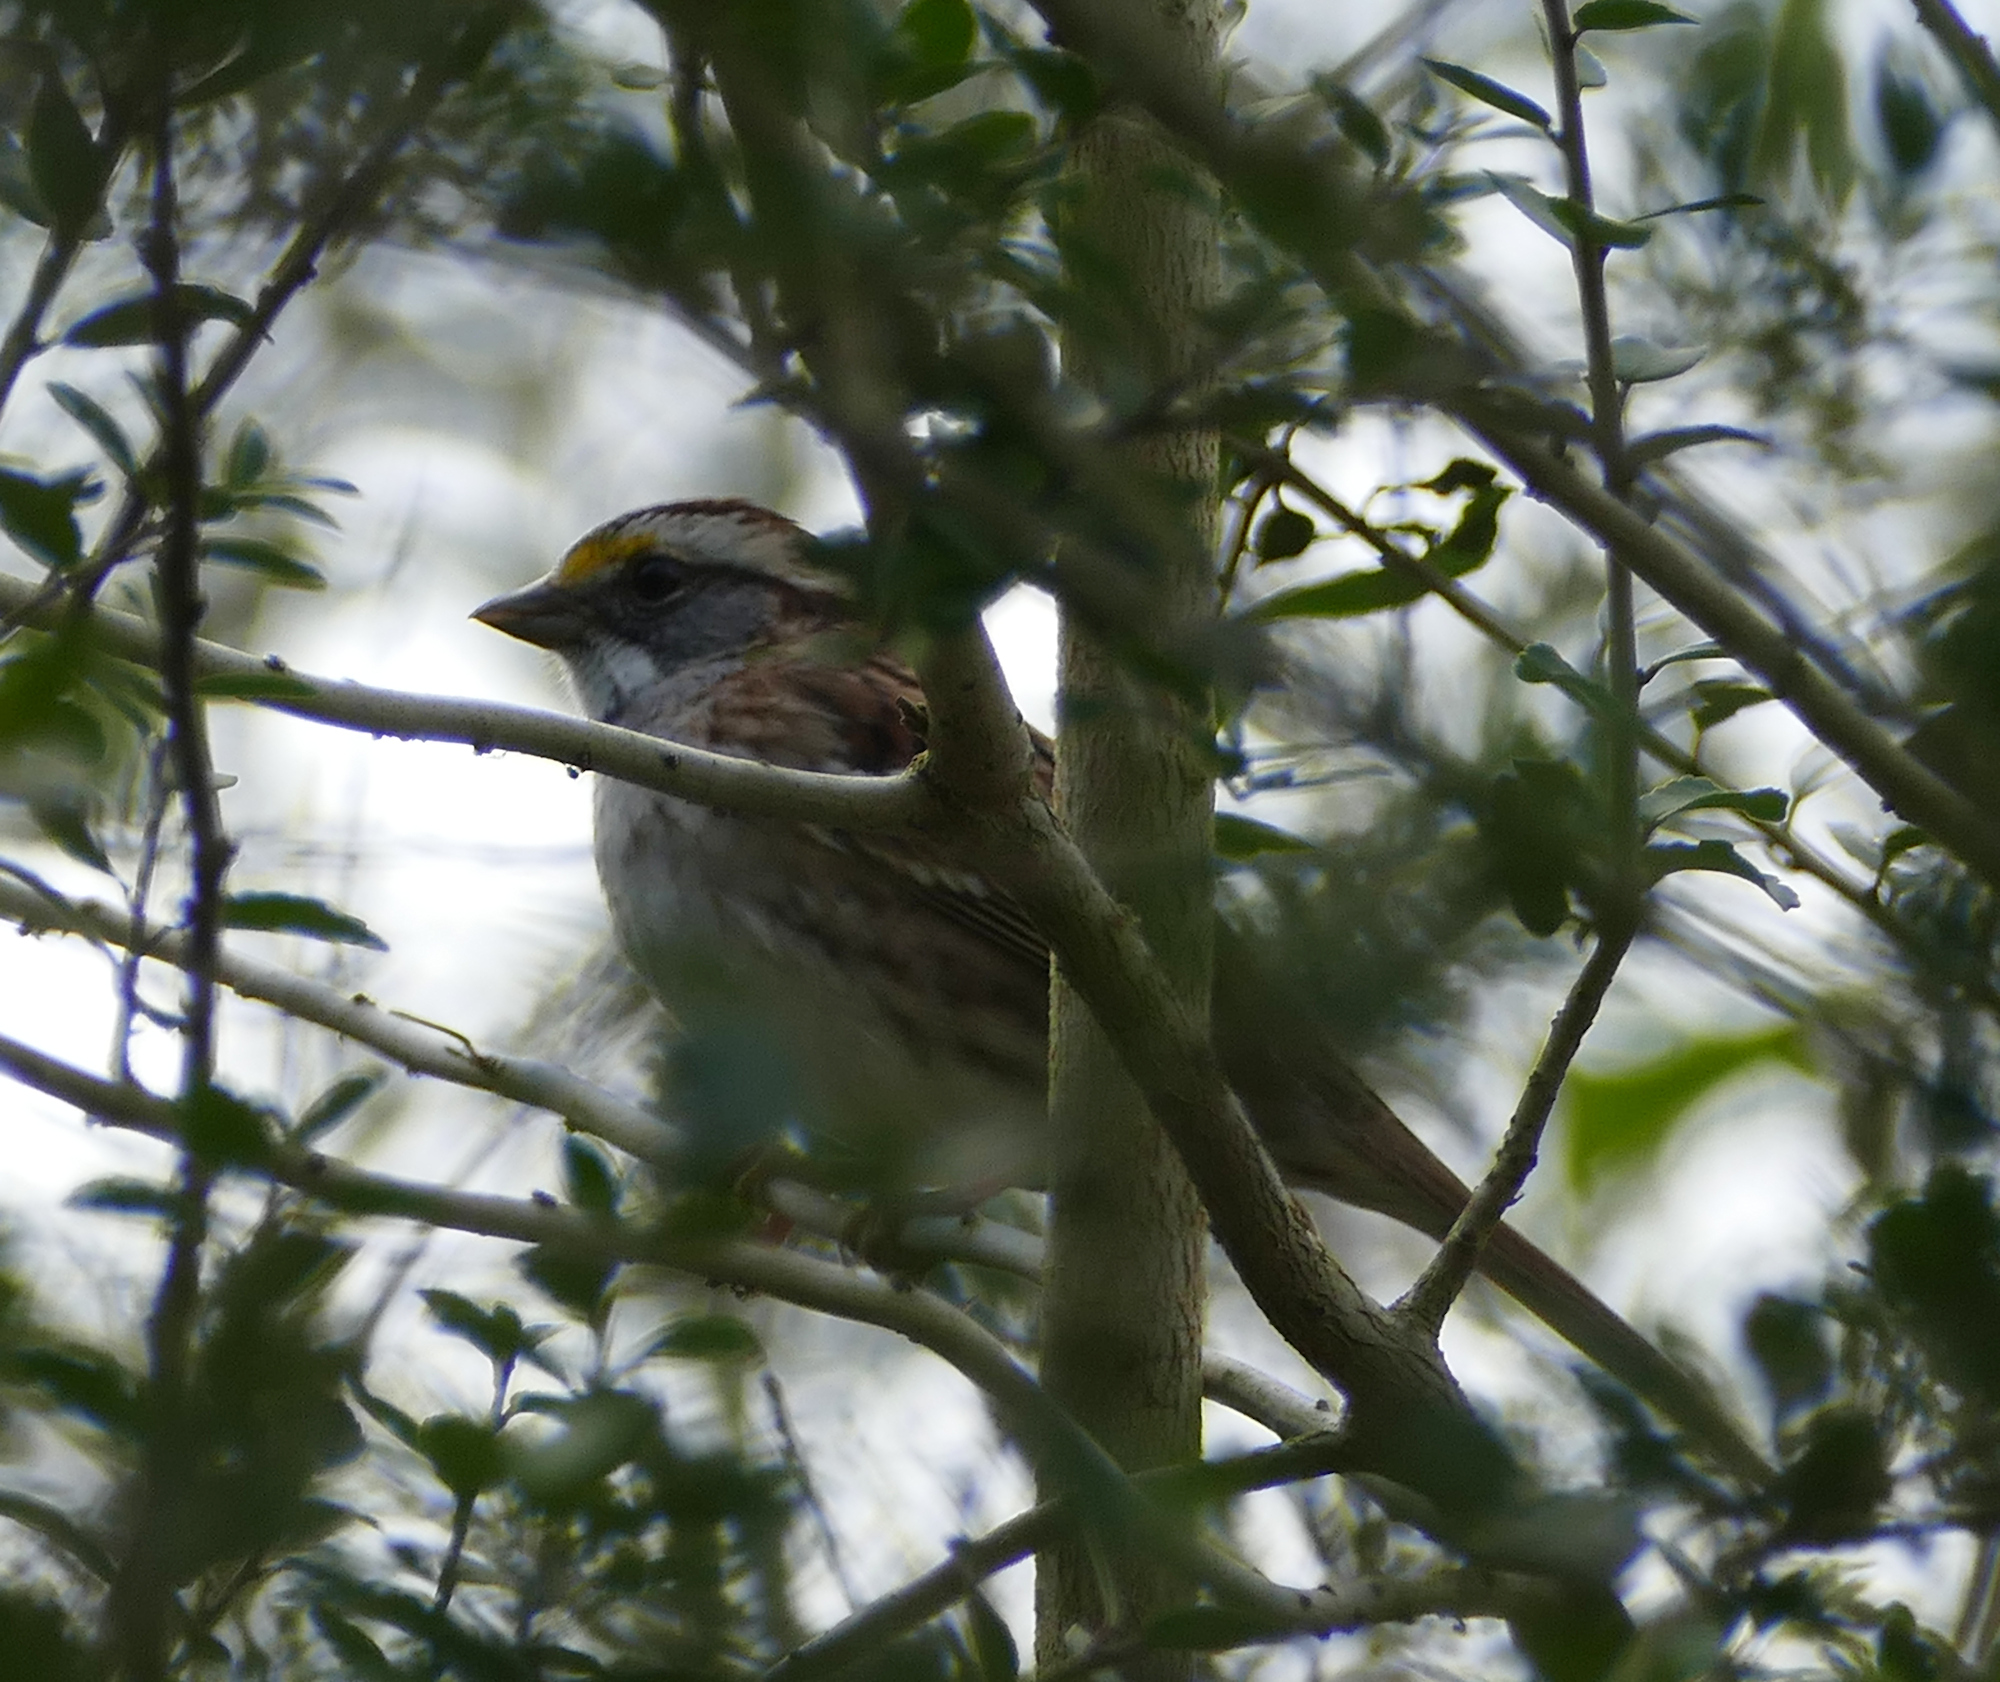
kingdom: Animalia
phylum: Chordata
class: Aves
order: Passeriformes
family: Passerellidae
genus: Zonotrichia
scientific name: Zonotrichia albicollis
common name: White-throated sparrow
